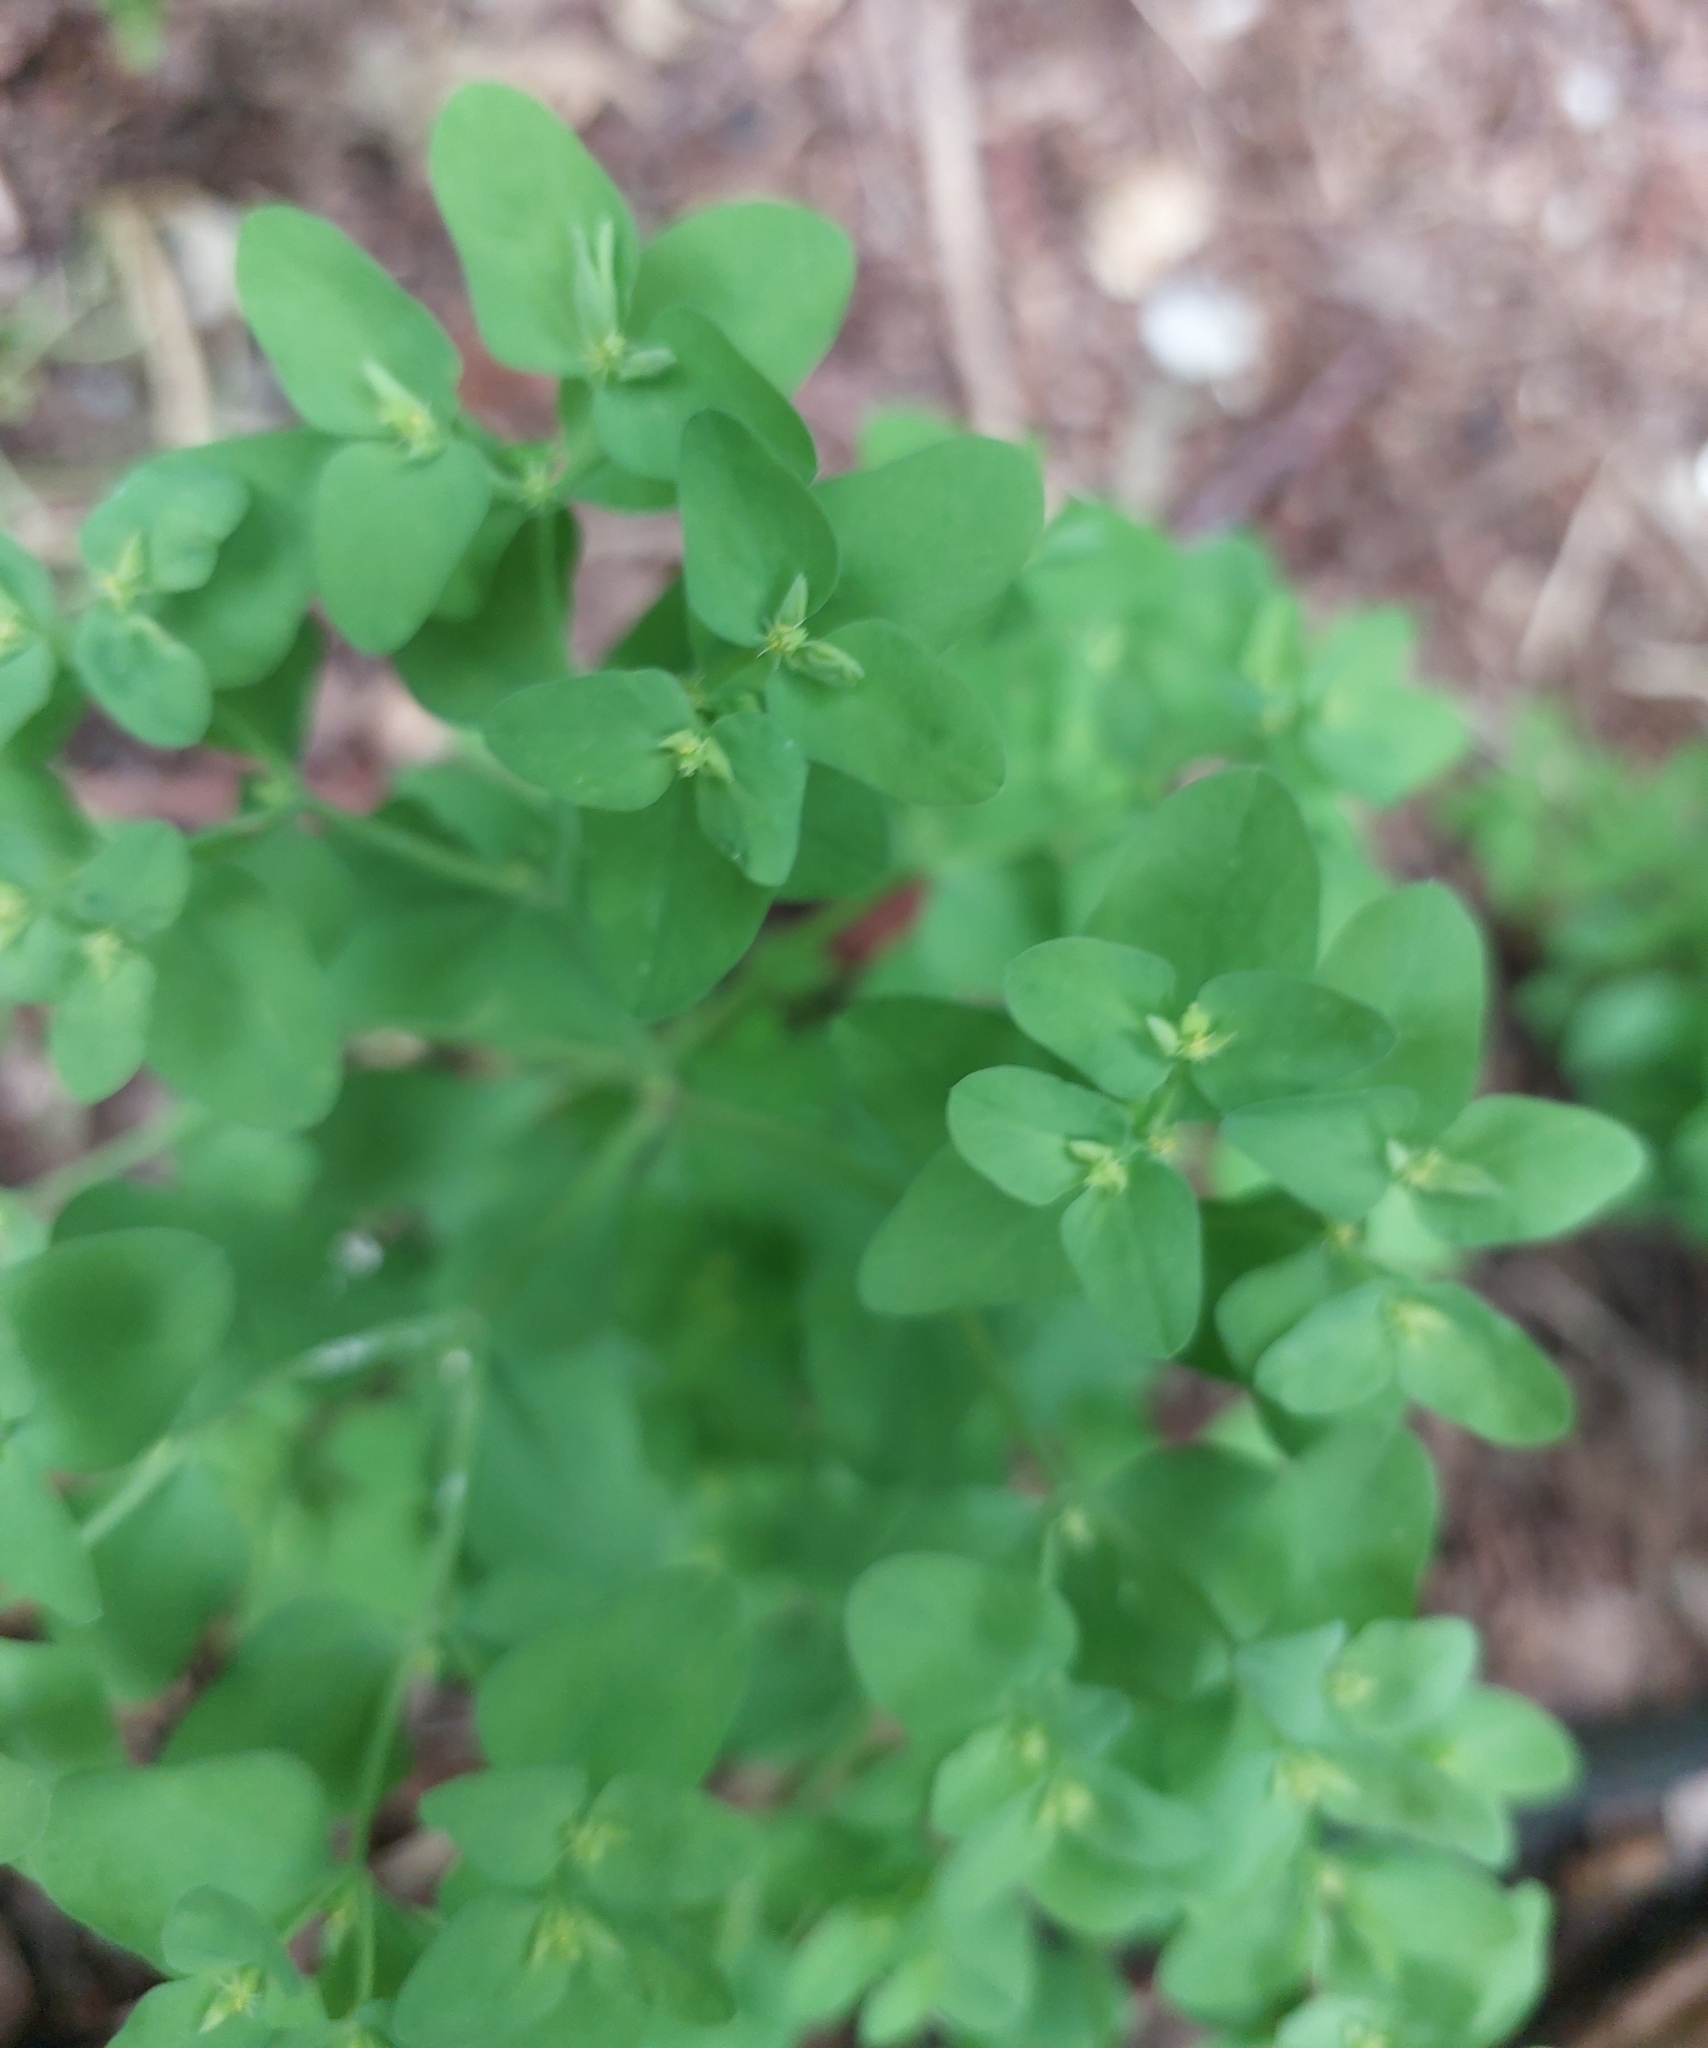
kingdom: Plantae
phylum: Tracheophyta
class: Magnoliopsida
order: Malpighiales
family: Euphorbiaceae
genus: Euphorbia
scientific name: Euphorbia peplus
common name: Petty spurge
